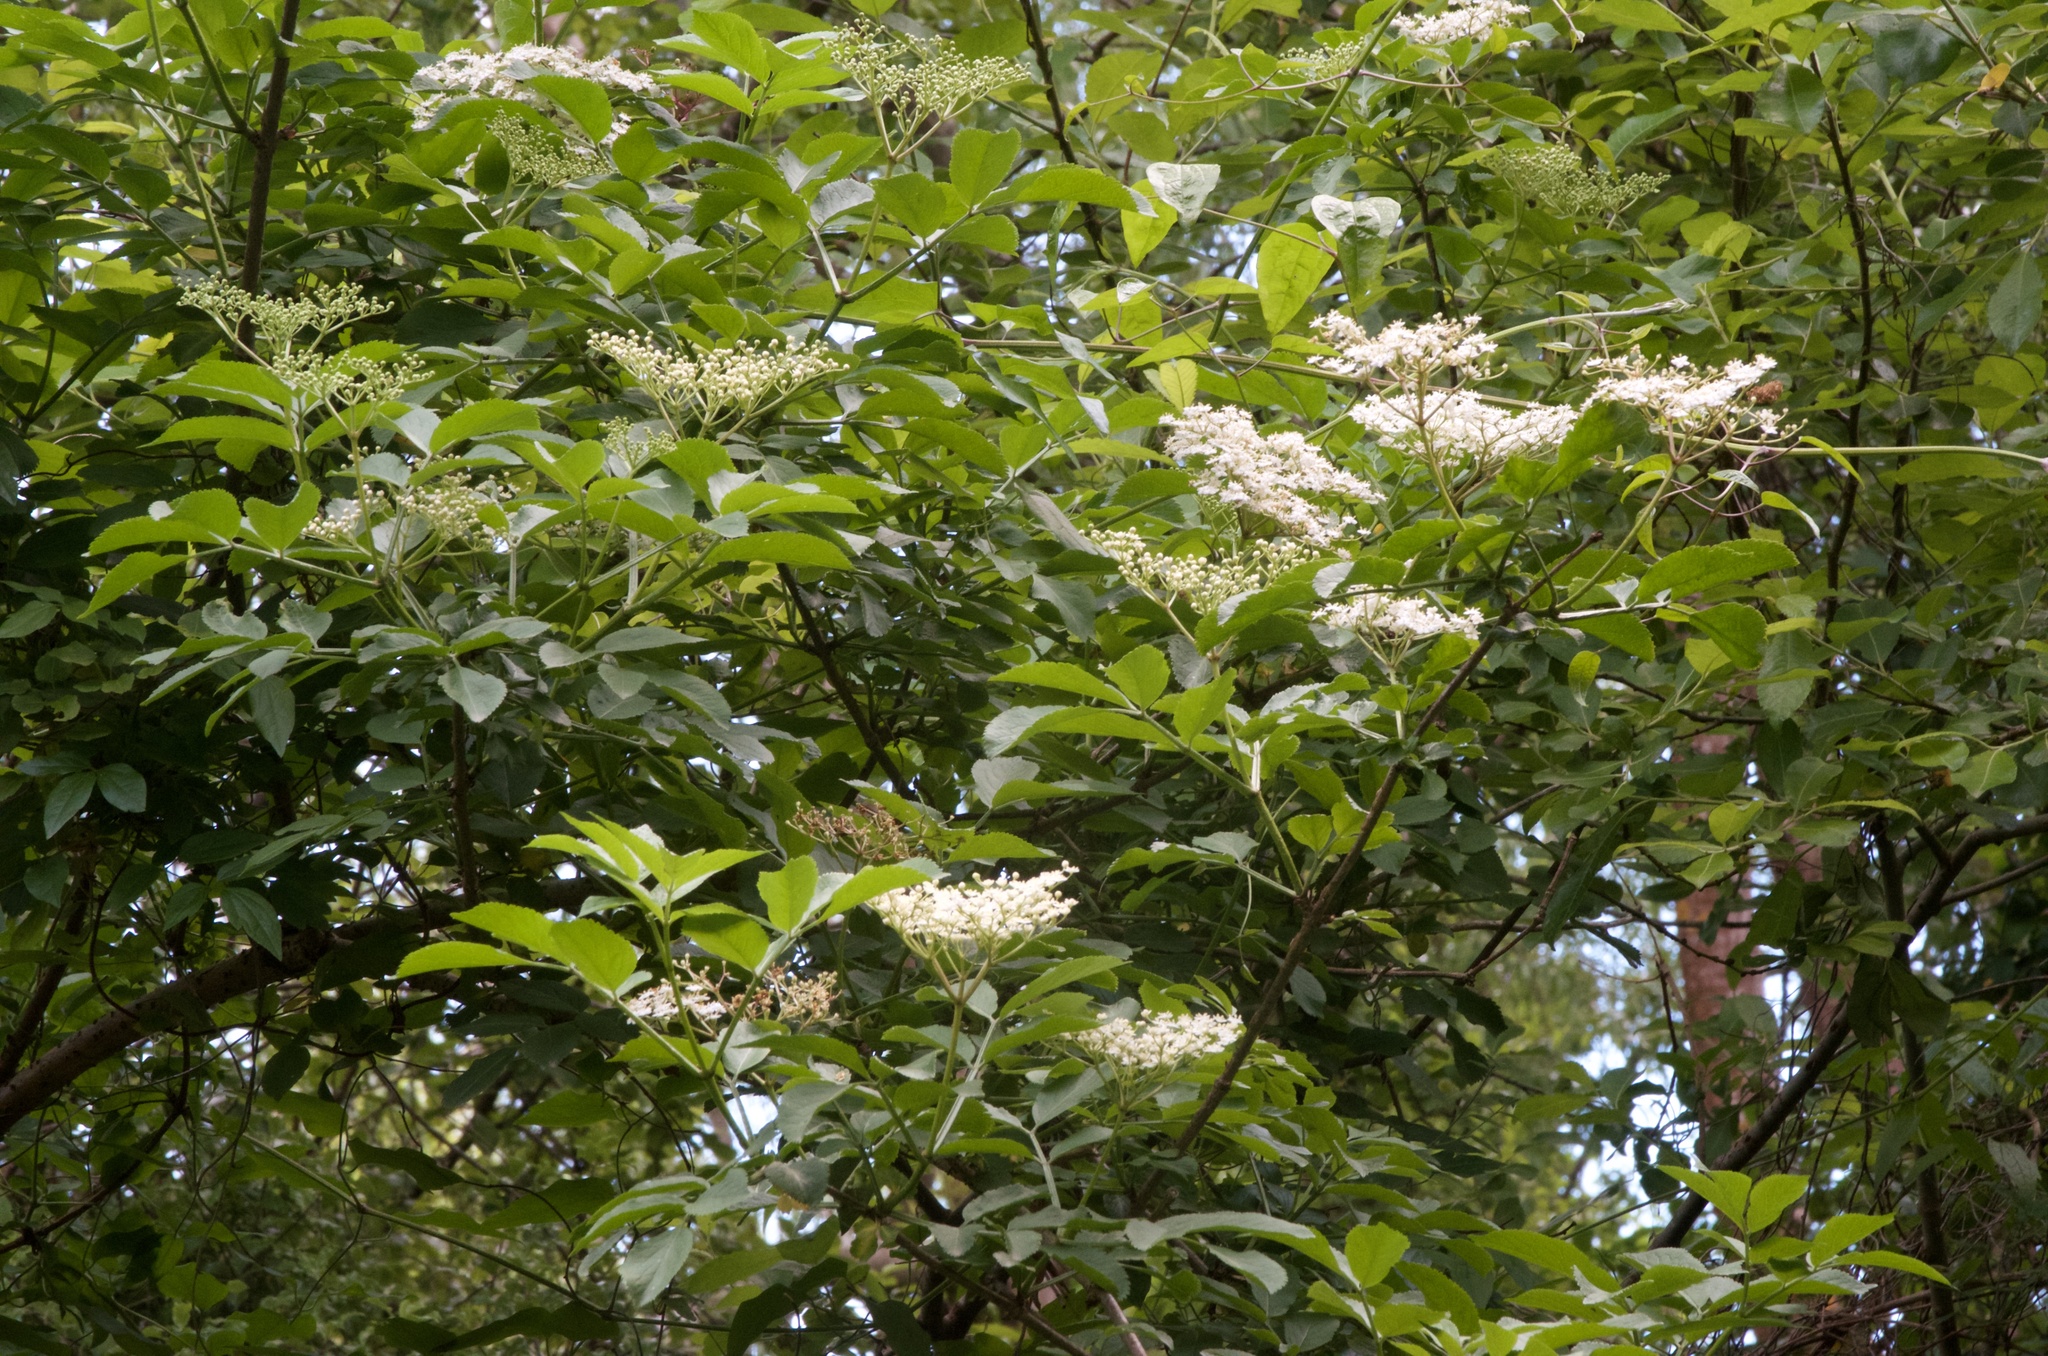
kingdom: Plantae
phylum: Tracheophyta
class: Magnoliopsida
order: Dipsacales
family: Viburnaceae
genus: Sambucus
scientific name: Sambucus nigra
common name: Elder
